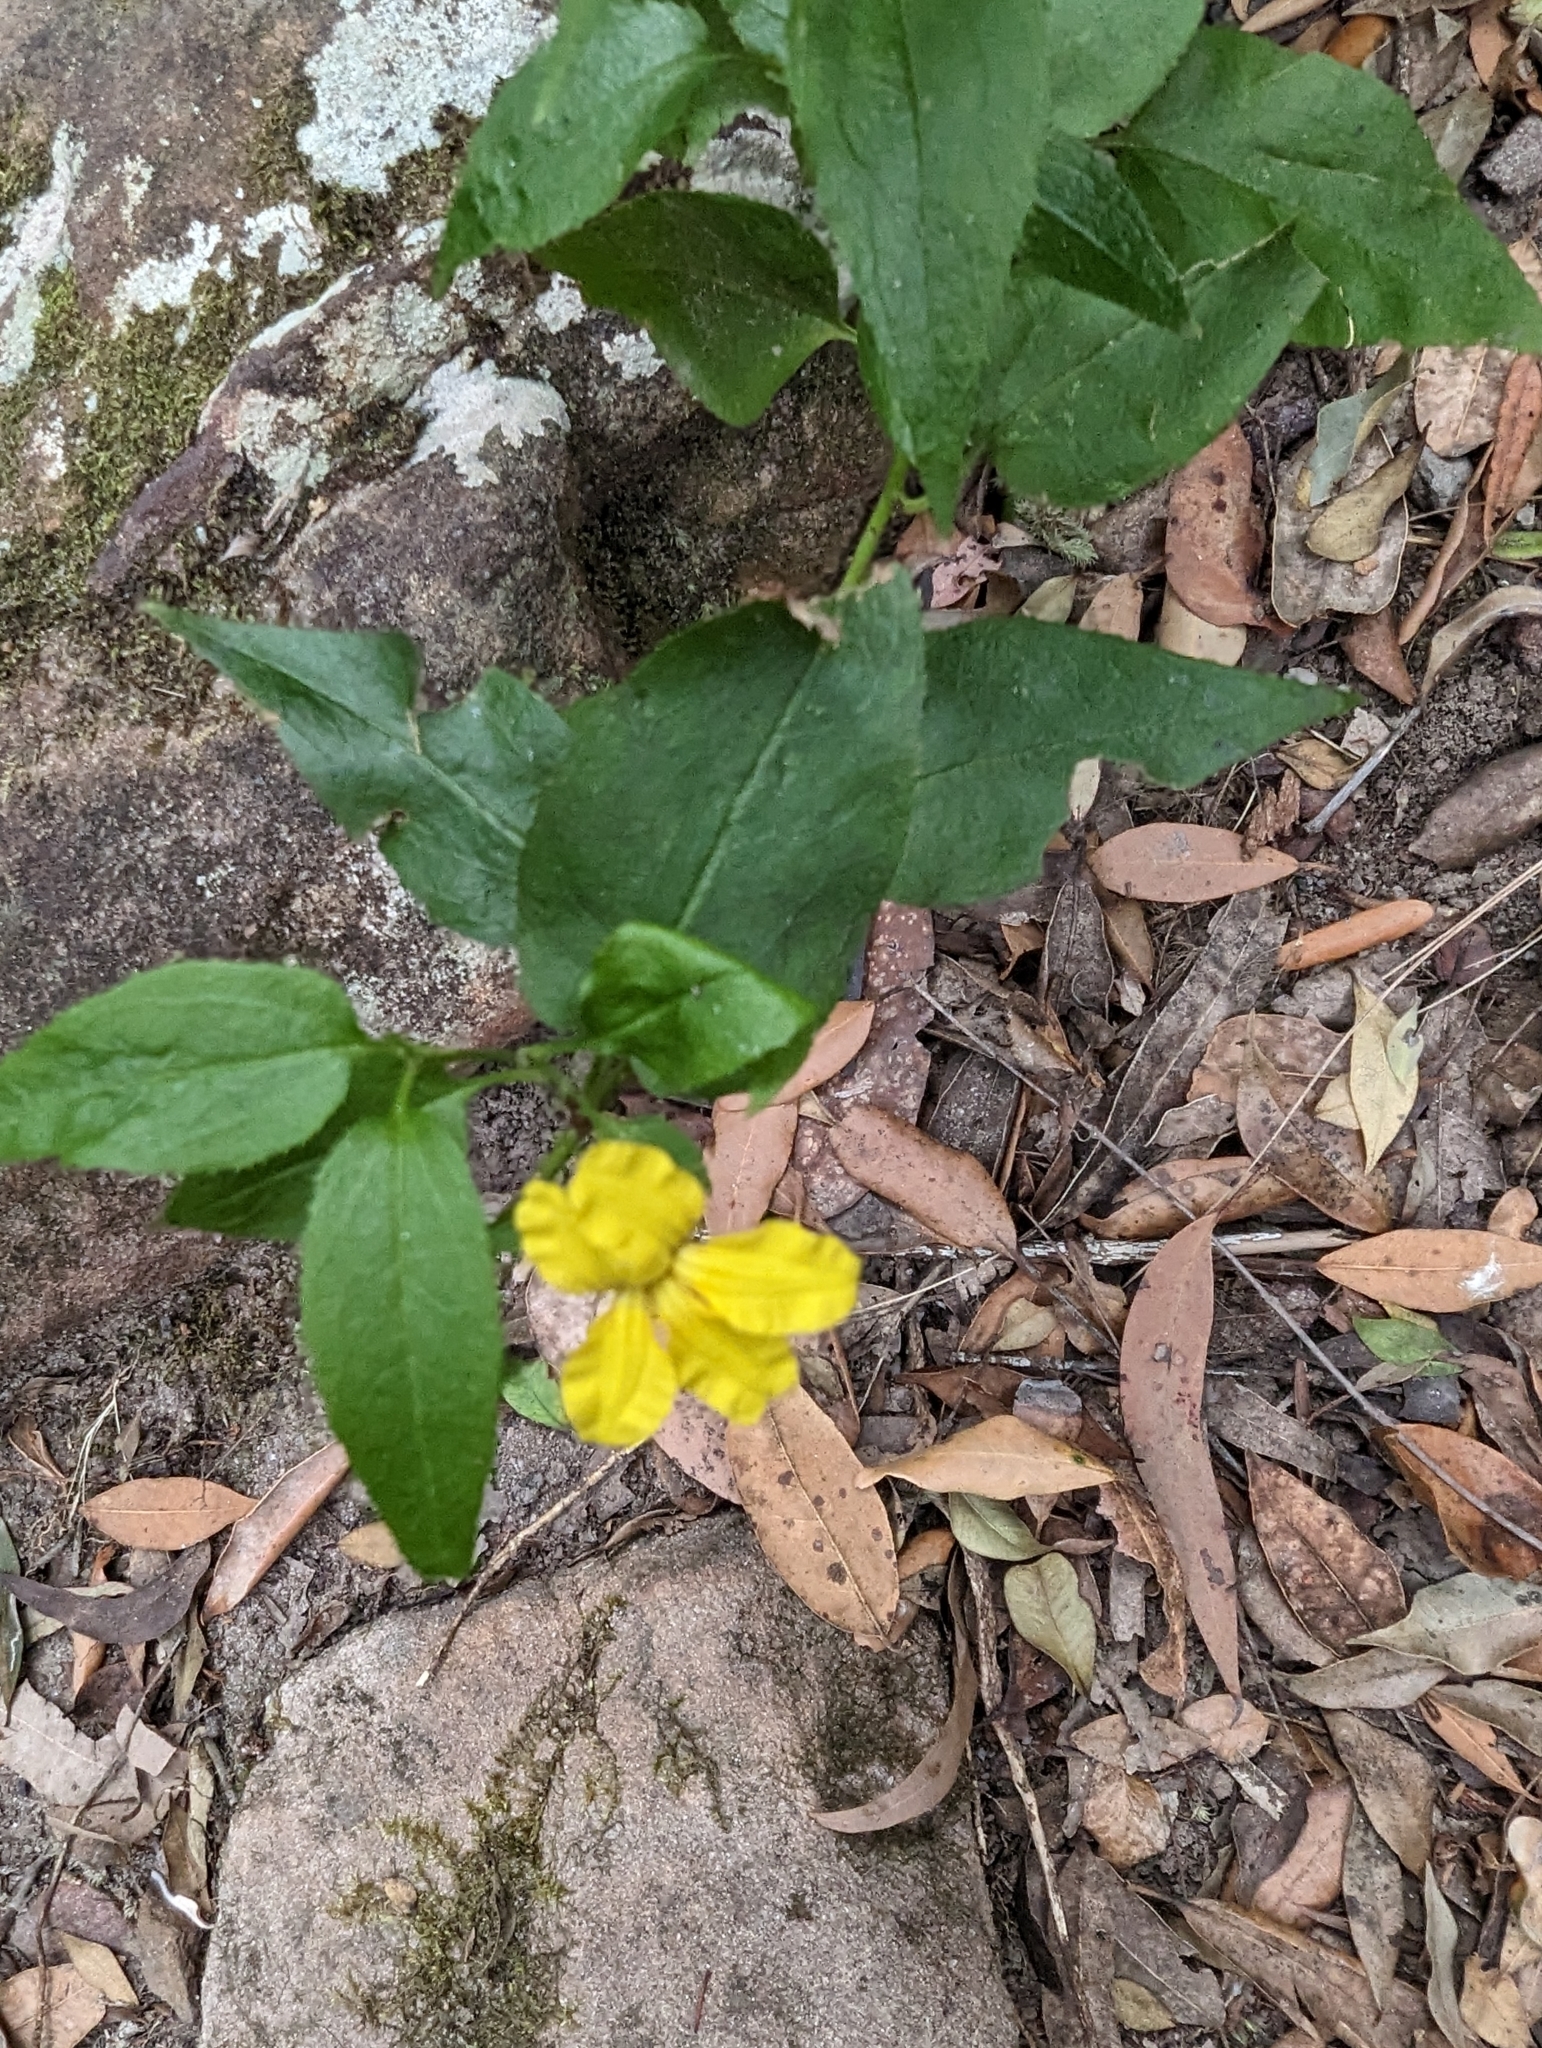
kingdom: Plantae
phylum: Tracheophyta
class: Magnoliopsida
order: Asterales
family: Goodeniaceae
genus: Goodenia
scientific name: Goodenia ovata
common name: Hop goodenia
